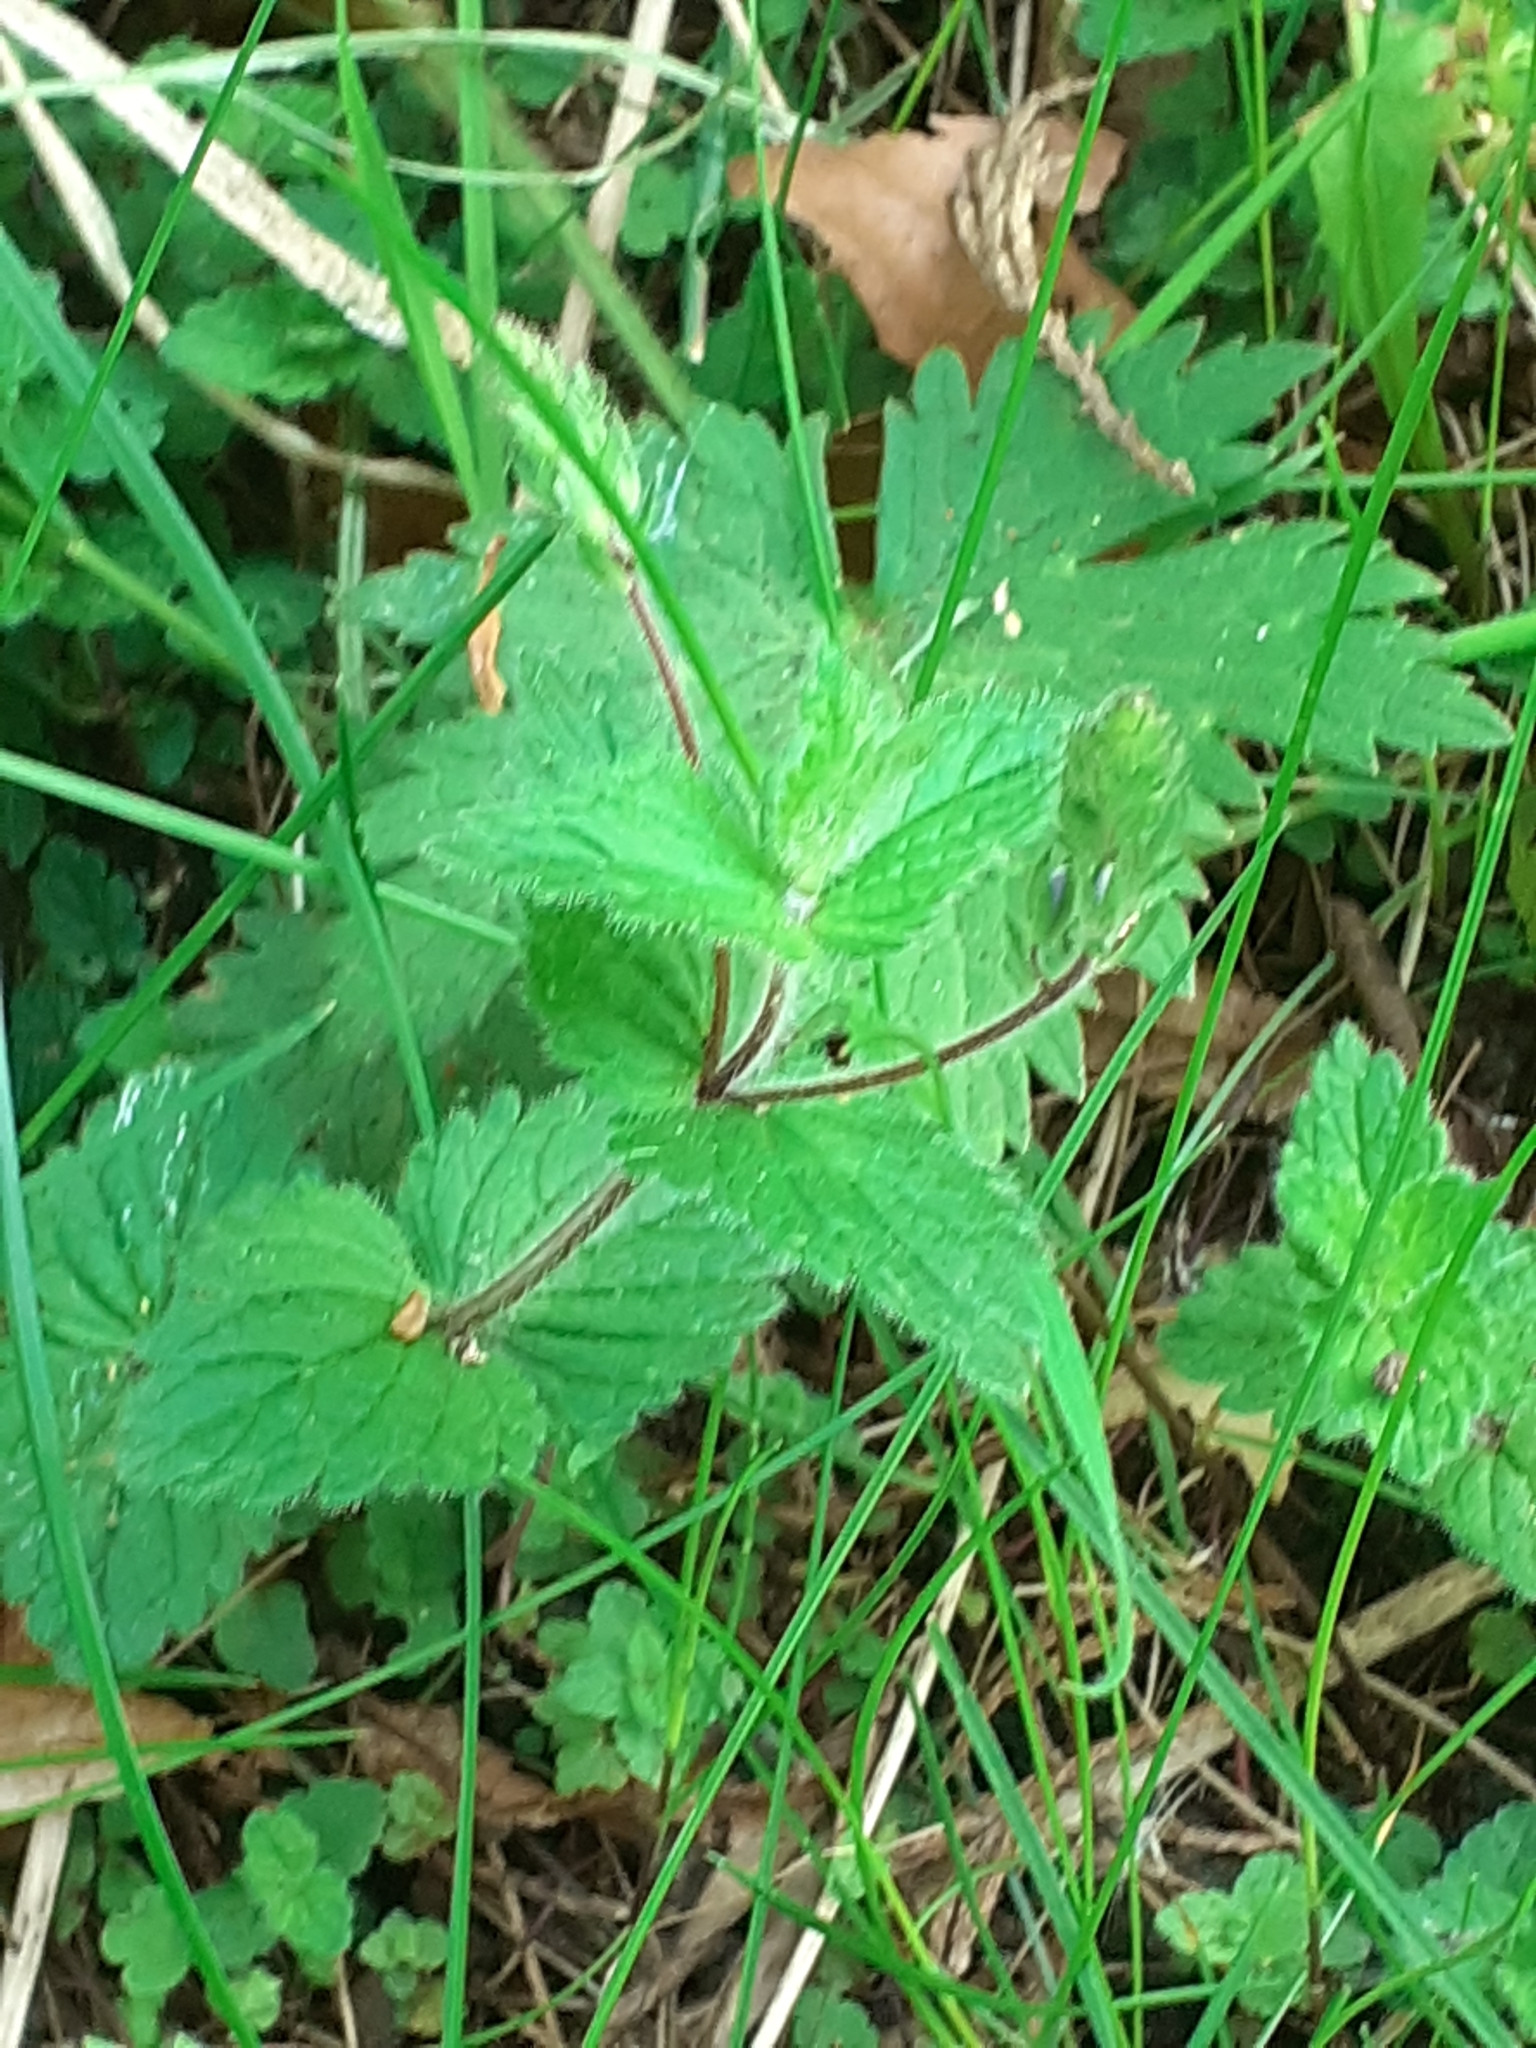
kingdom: Plantae
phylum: Tracheophyta
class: Magnoliopsida
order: Lamiales
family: Plantaginaceae
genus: Veronica
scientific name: Veronica chamaedrys
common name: Germander speedwell
